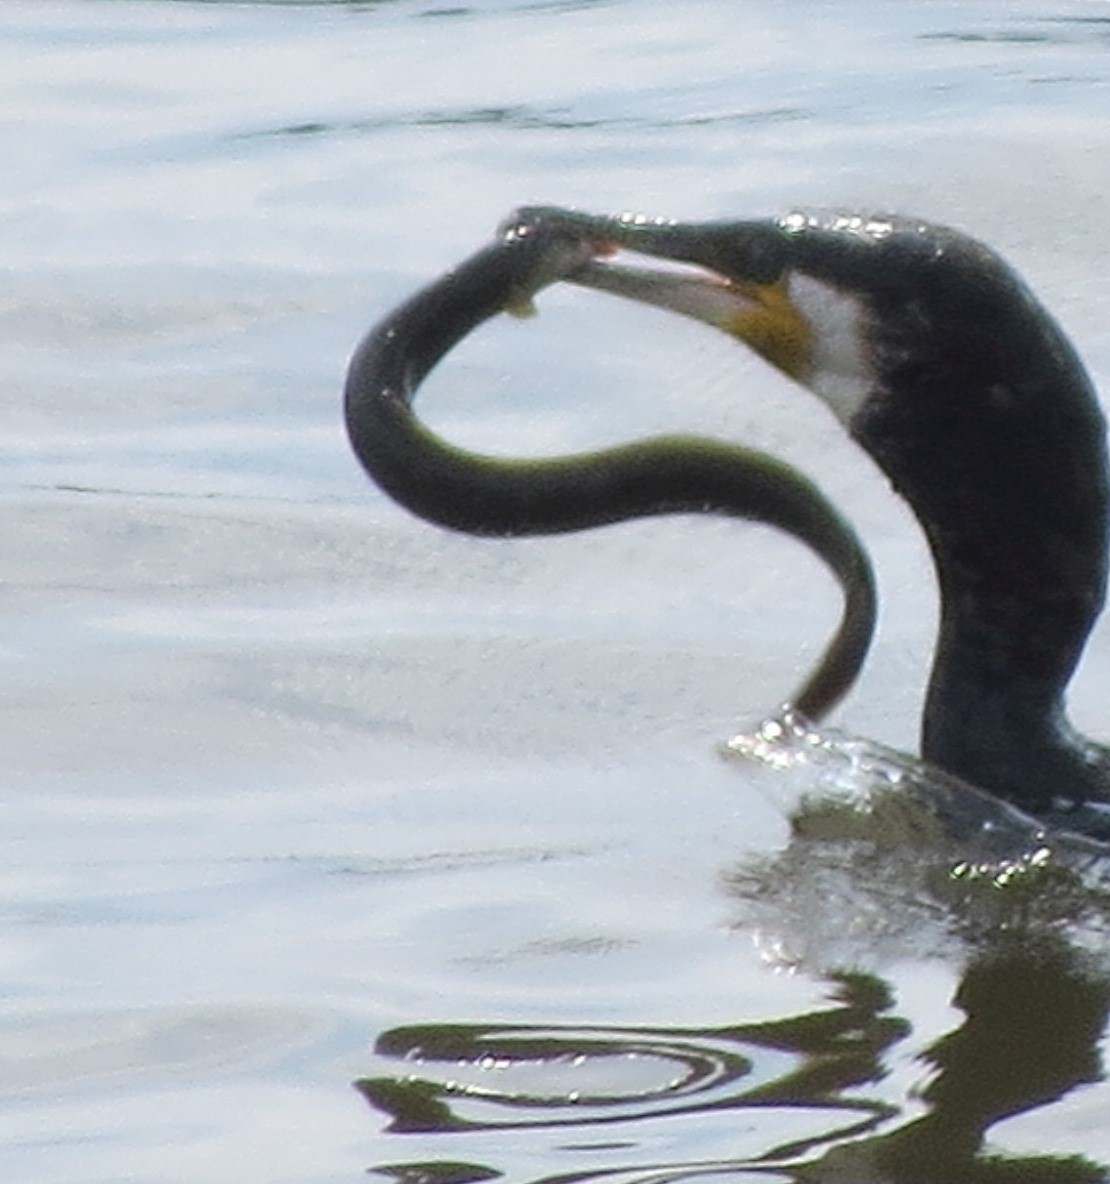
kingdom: Animalia
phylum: Chordata
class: Aves
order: Suliformes
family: Phalacrocoracidae
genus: Phalacrocorax
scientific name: Phalacrocorax carbo
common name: Great cormorant
